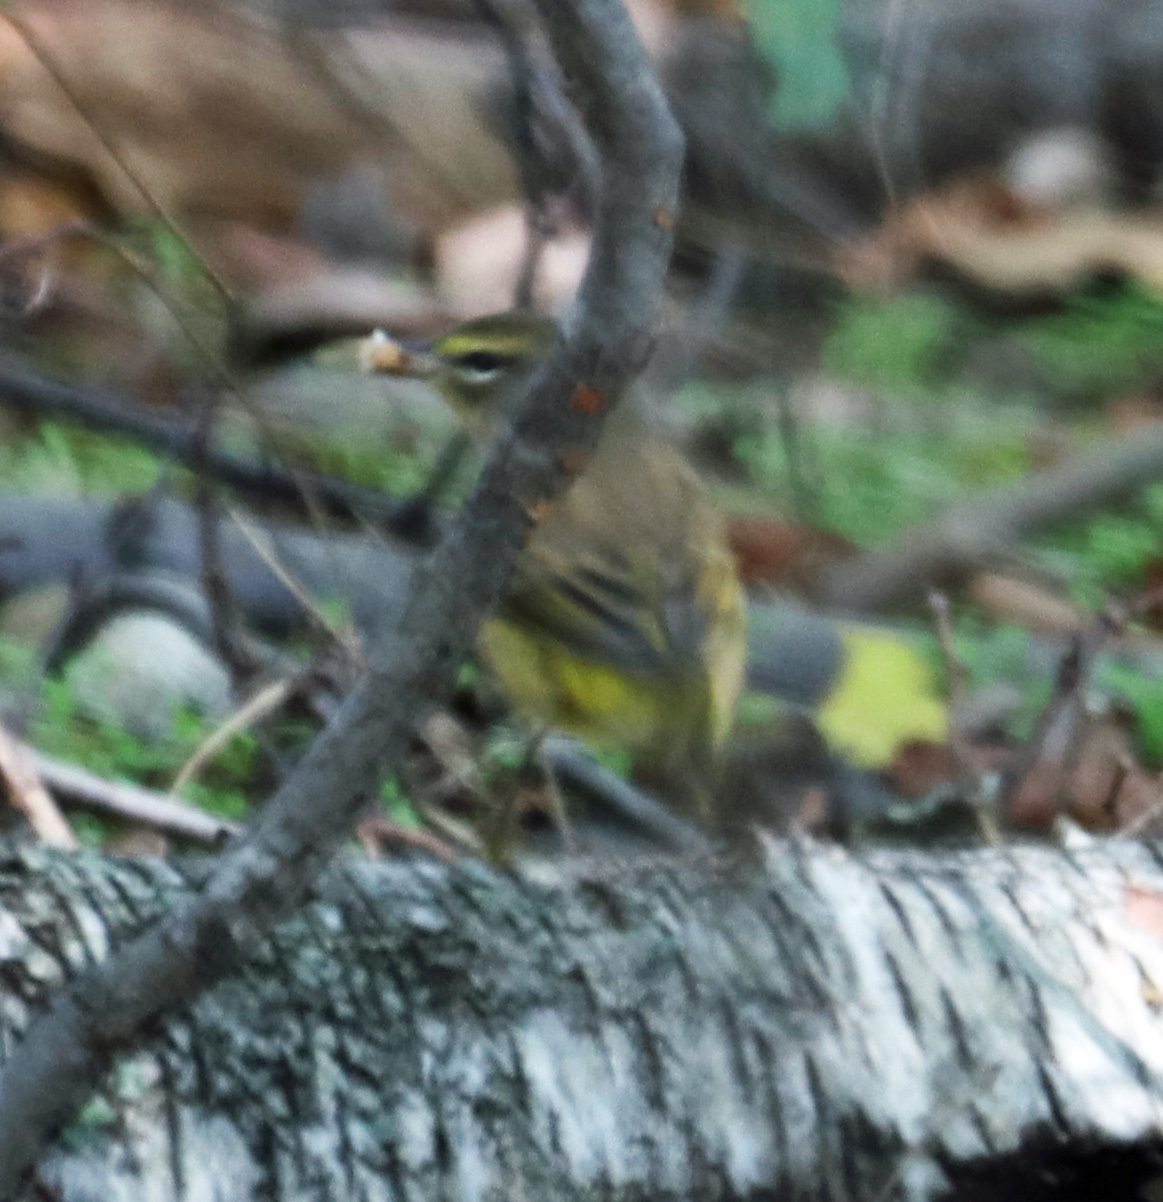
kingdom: Animalia
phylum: Chordata
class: Aves
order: Passeriformes
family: Parulidae
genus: Setophaga
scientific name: Setophaga palmarum
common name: Palm warbler
